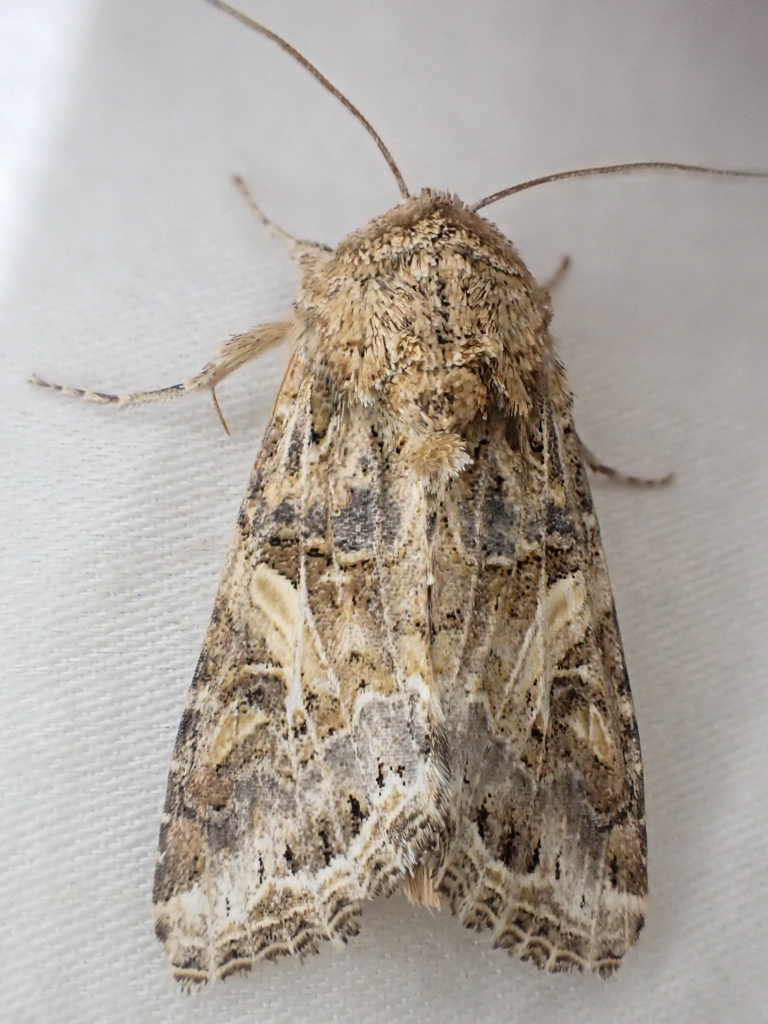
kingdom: Animalia
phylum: Arthropoda
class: Insecta
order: Lepidoptera
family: Noctuidae
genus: Spodoptera
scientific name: Spodoptera praefica
